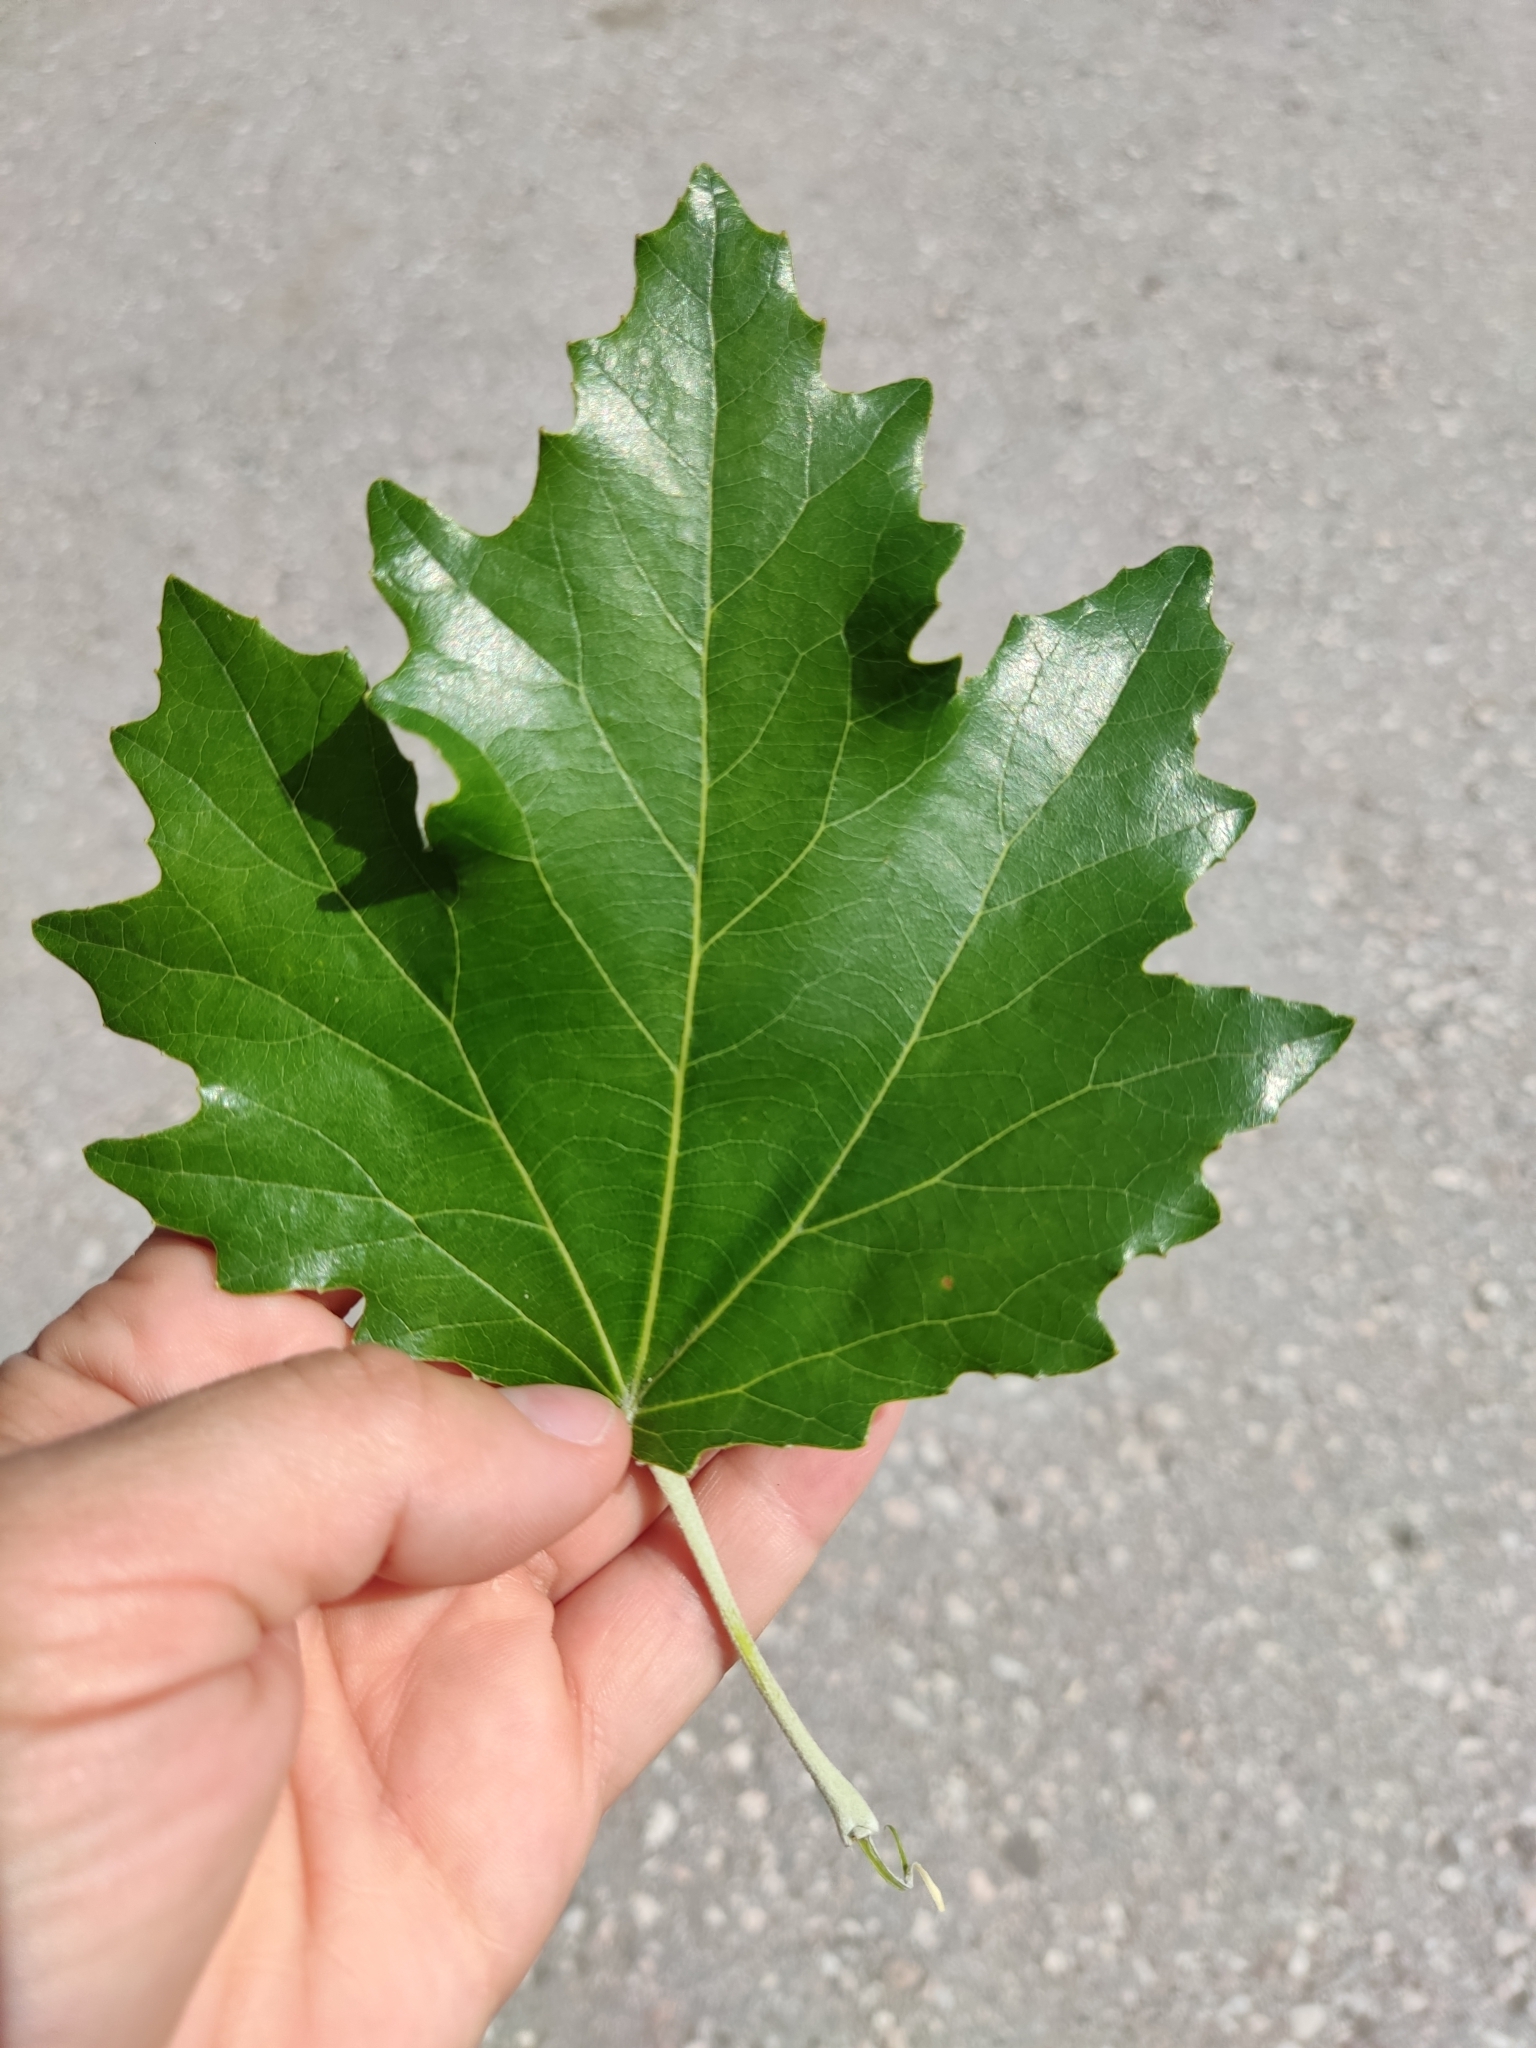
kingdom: Plantae
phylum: Tracheophyta
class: Magnoliopsida
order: Malpighiales
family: Salicaceae
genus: Populus
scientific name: Populus alba
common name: White poplar
